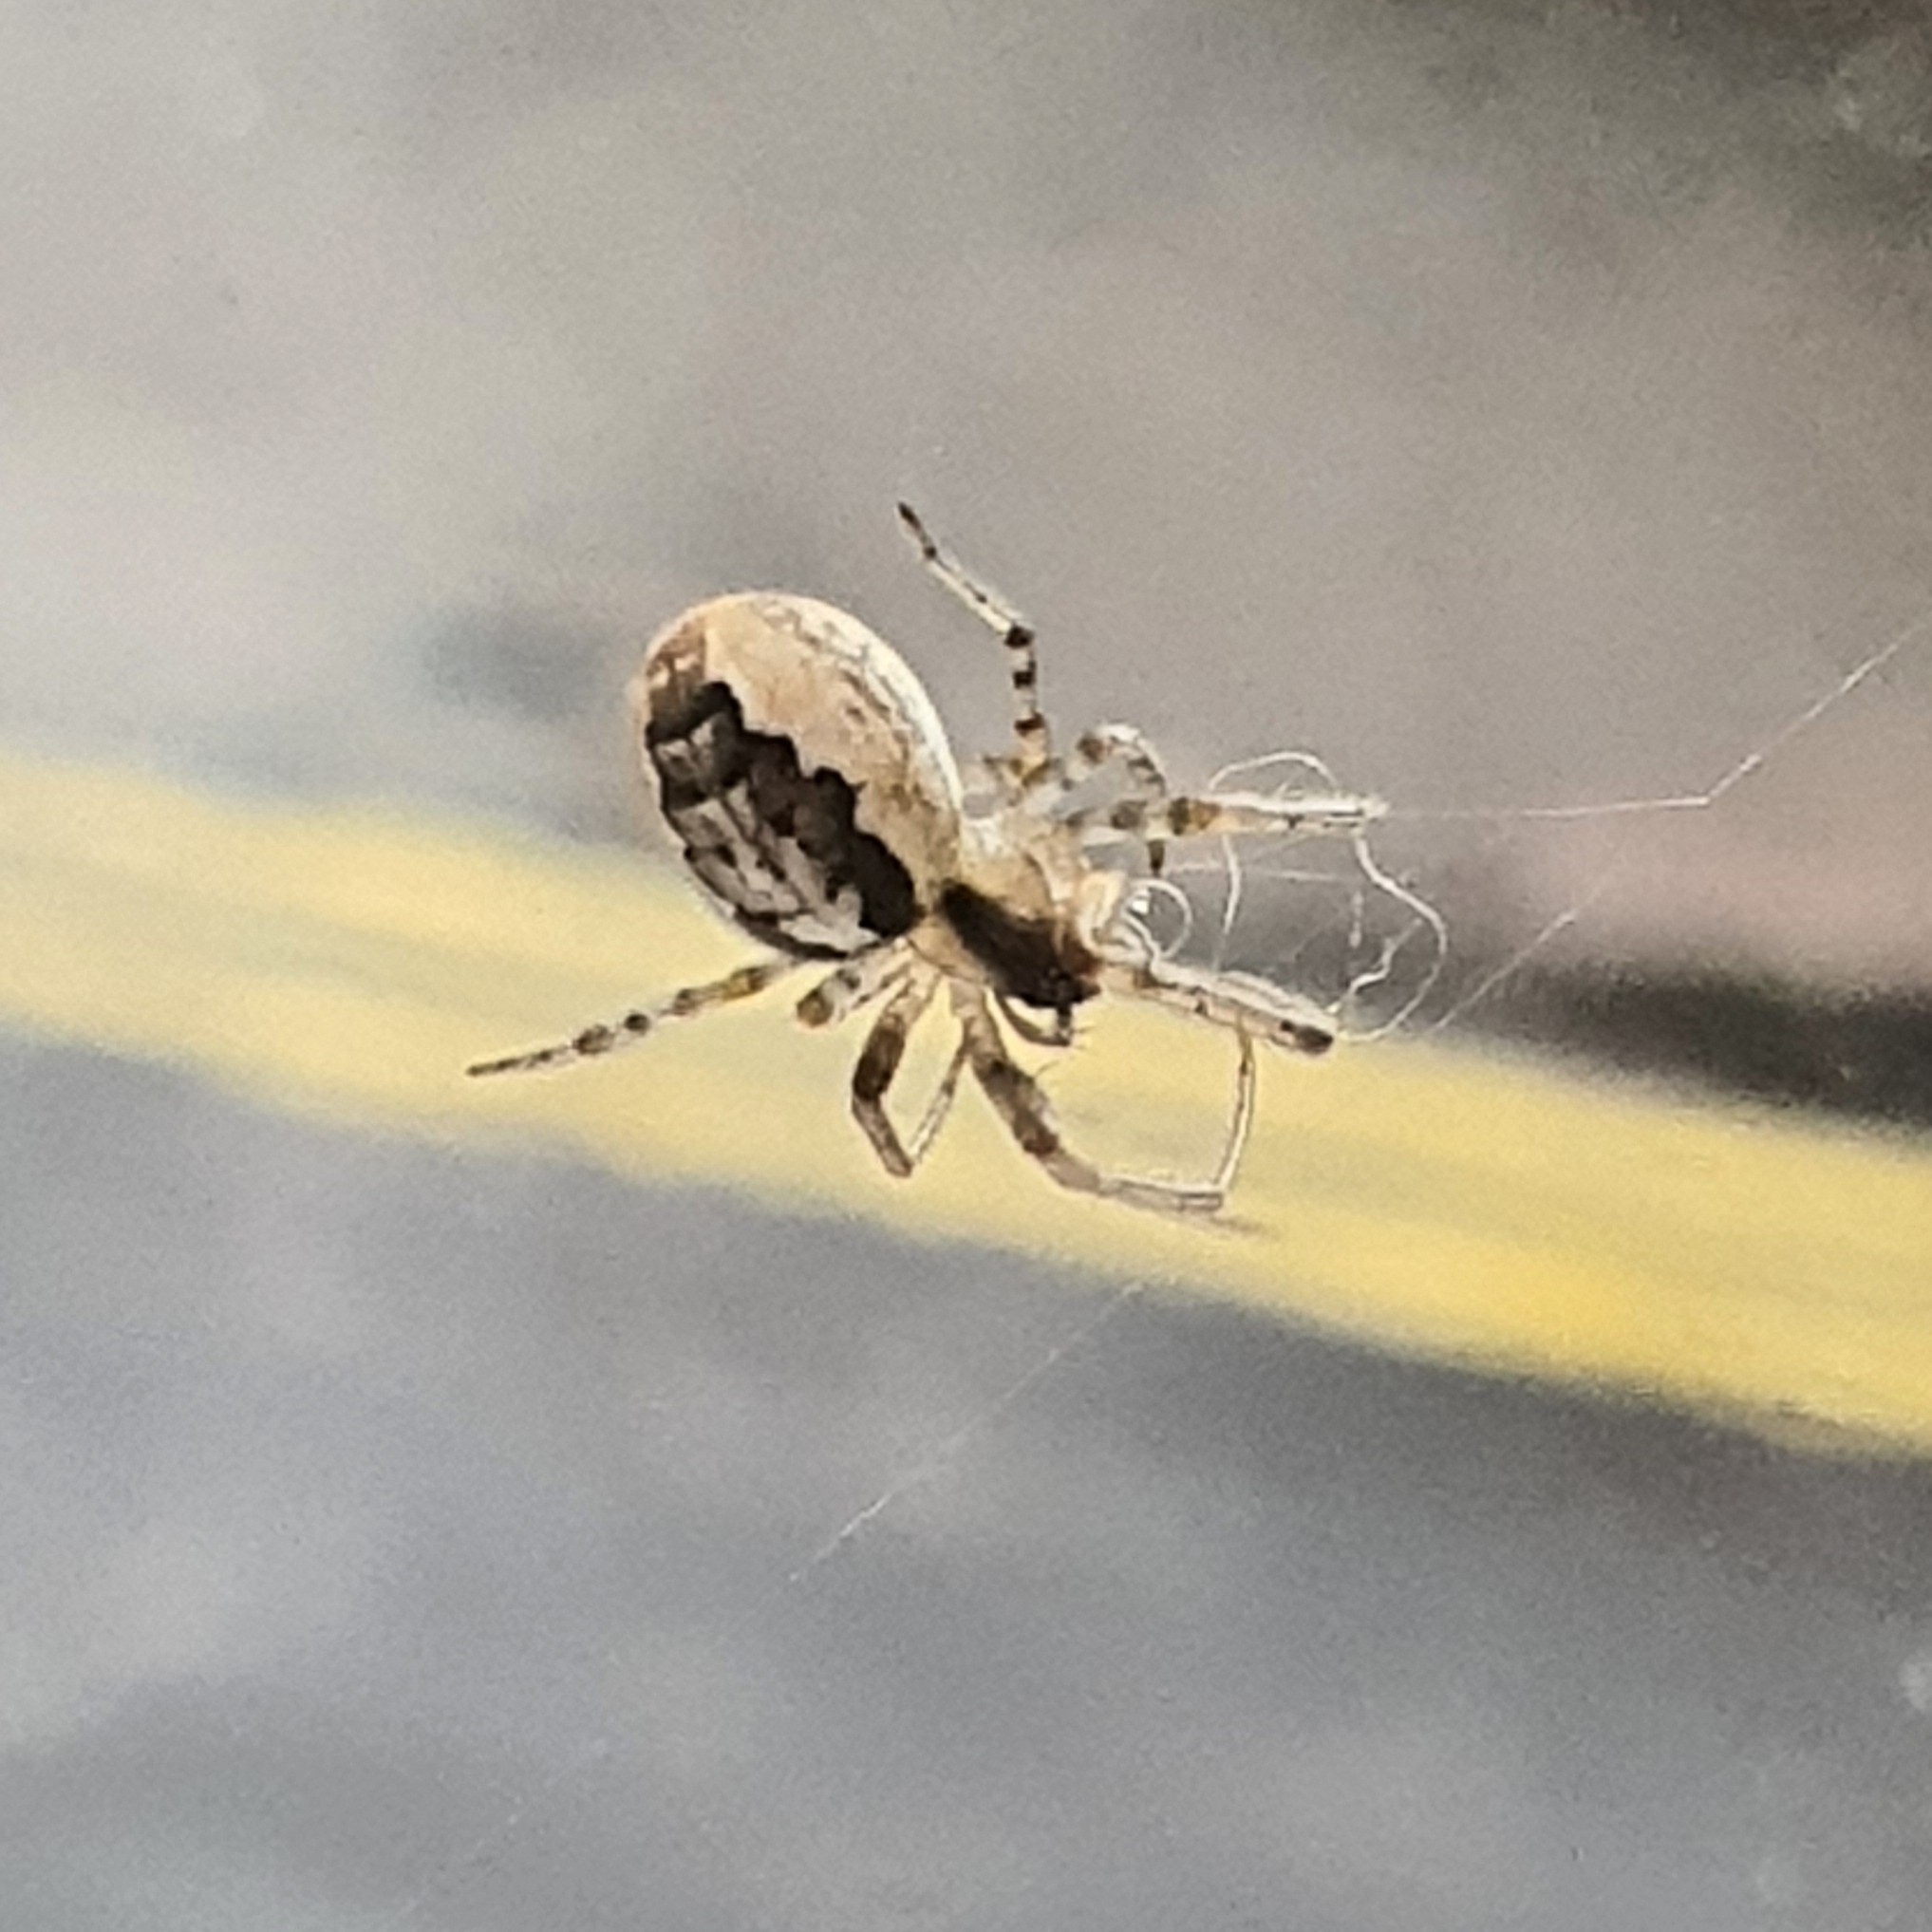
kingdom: Animalia
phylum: Arthropoda
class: Arachnida
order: Araneae
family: Araneidae
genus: Zygiella
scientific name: Zygiella x-notata
